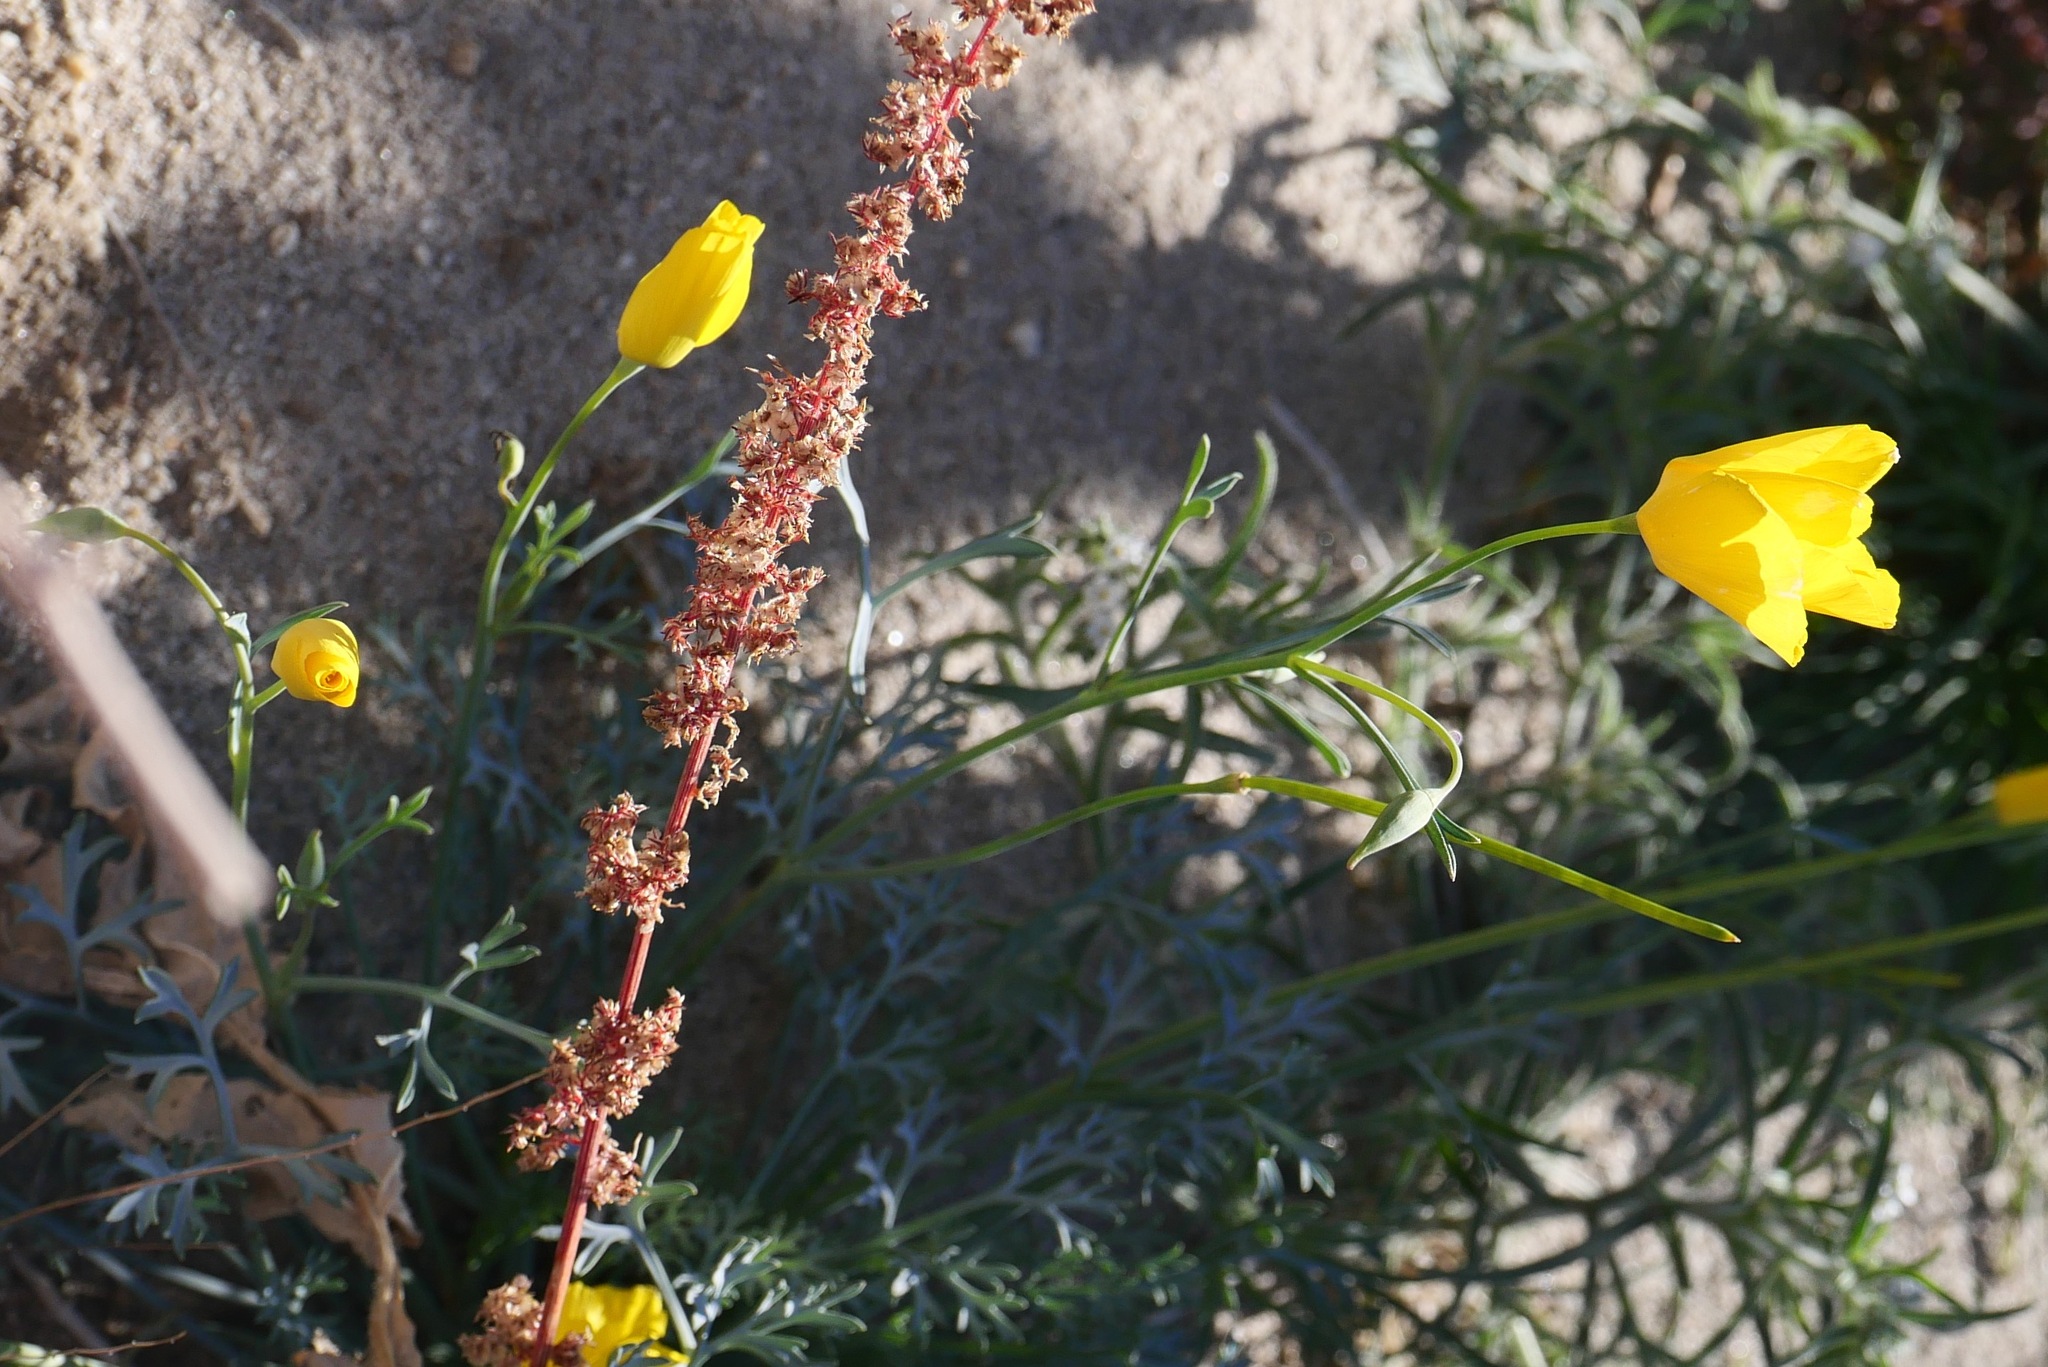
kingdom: Plantae
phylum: Tracheophyta
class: Magnoliopsida
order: Ranunculales
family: Papaveraceae
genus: Eschscholzia
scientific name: Eschscholzia parishii
